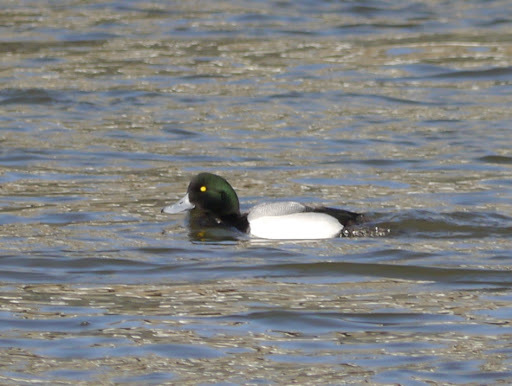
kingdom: Animalia
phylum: Chordata
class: Aves
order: Anseriformes
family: Anatidae
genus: Aythya
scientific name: Aythya marila
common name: Greater scaup
